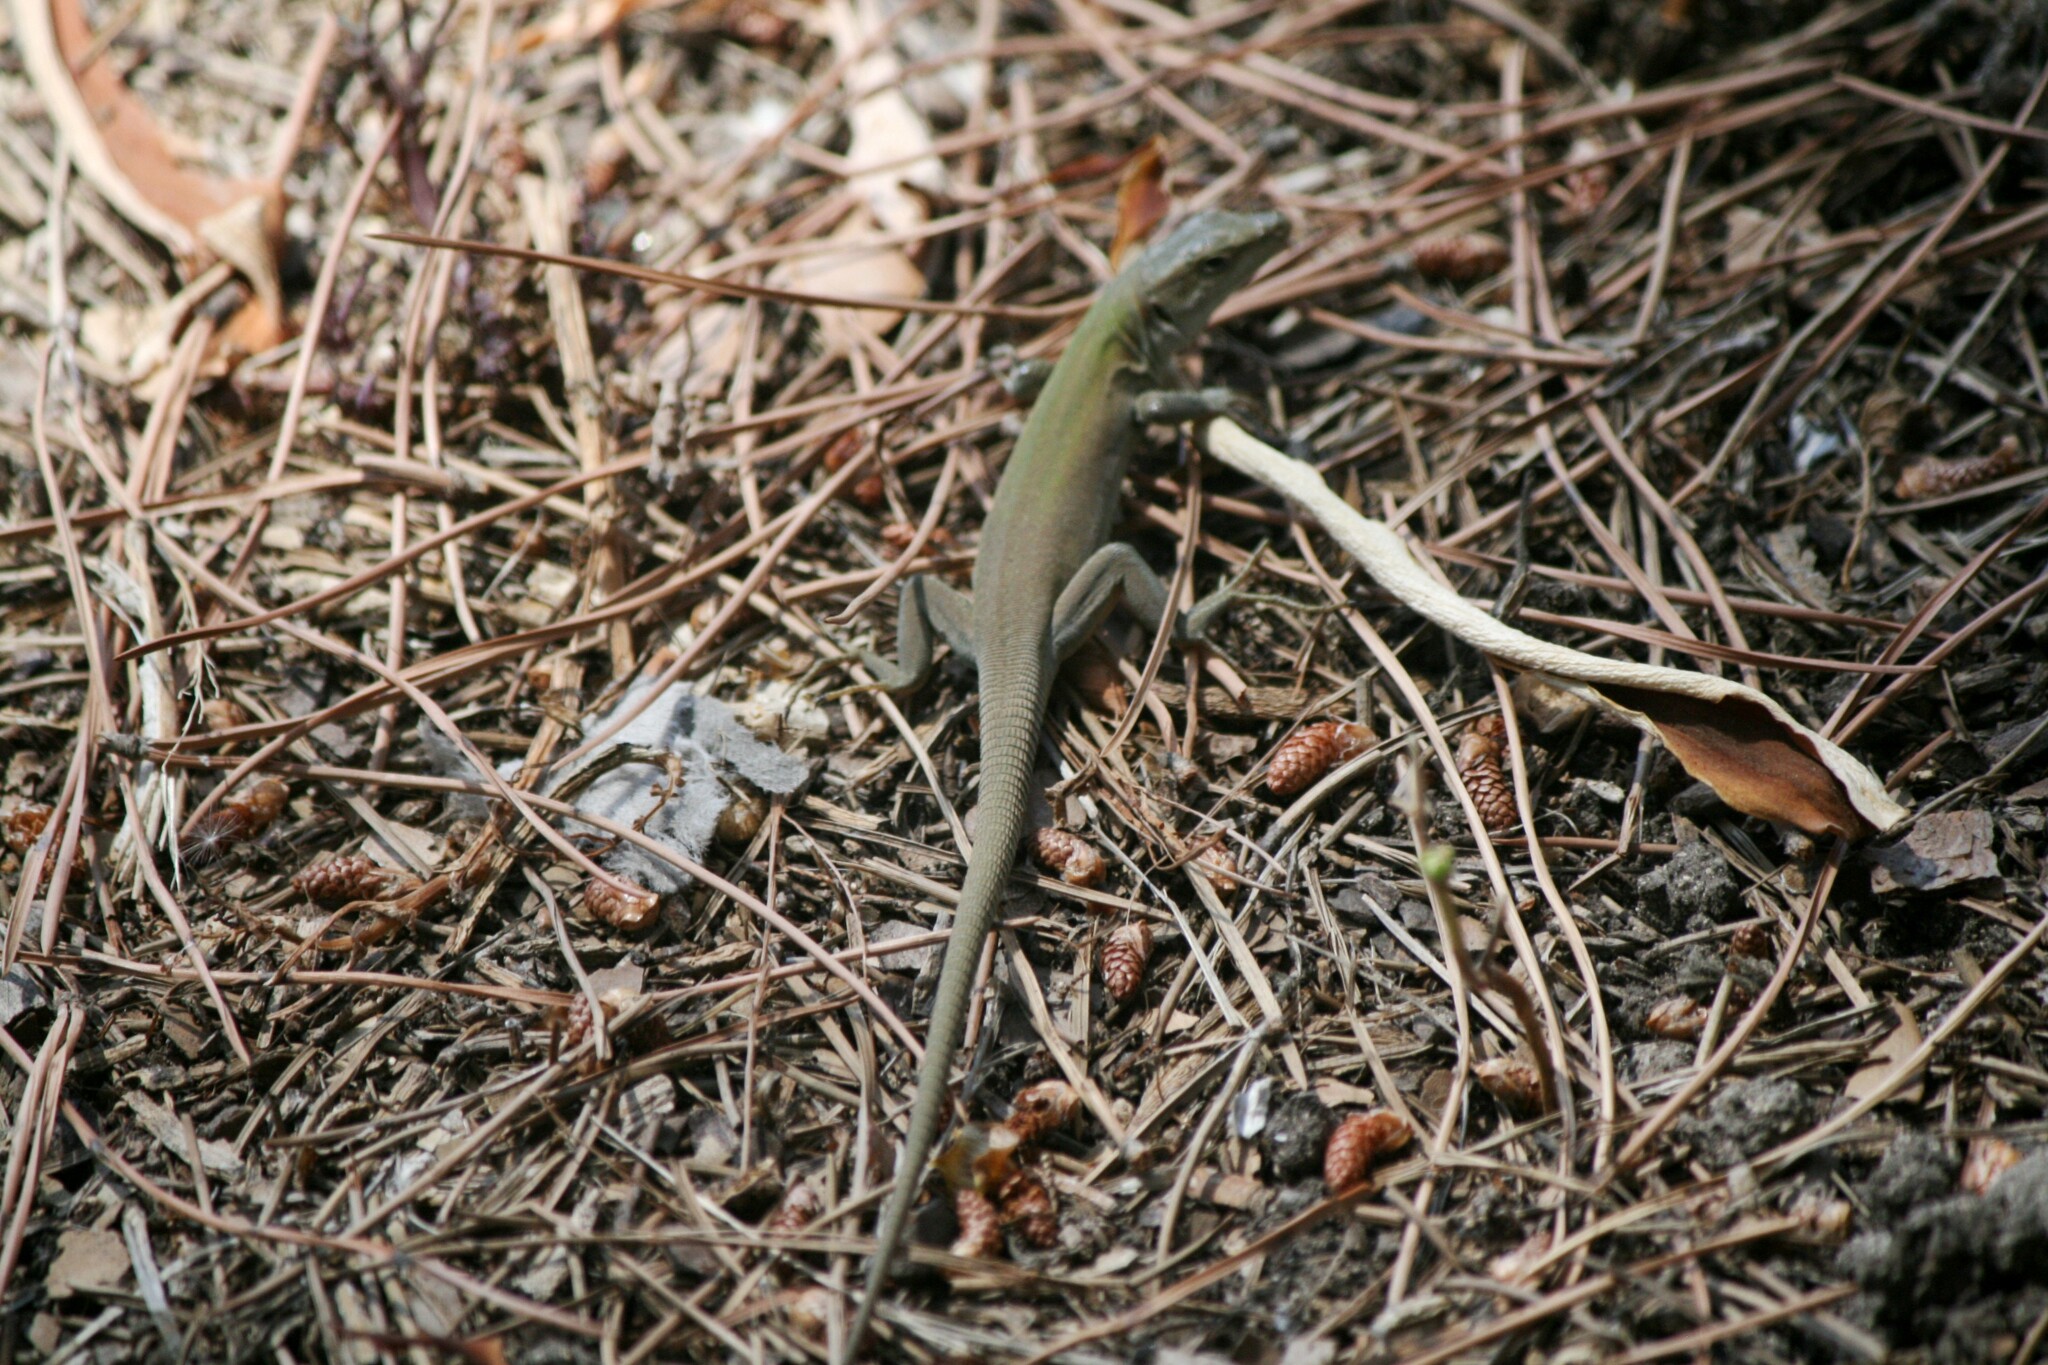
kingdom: Animalia
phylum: Chordata
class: Squamata
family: Lacertidae
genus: Podarcis
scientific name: Podarcis siculus
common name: Italian wall lizard
